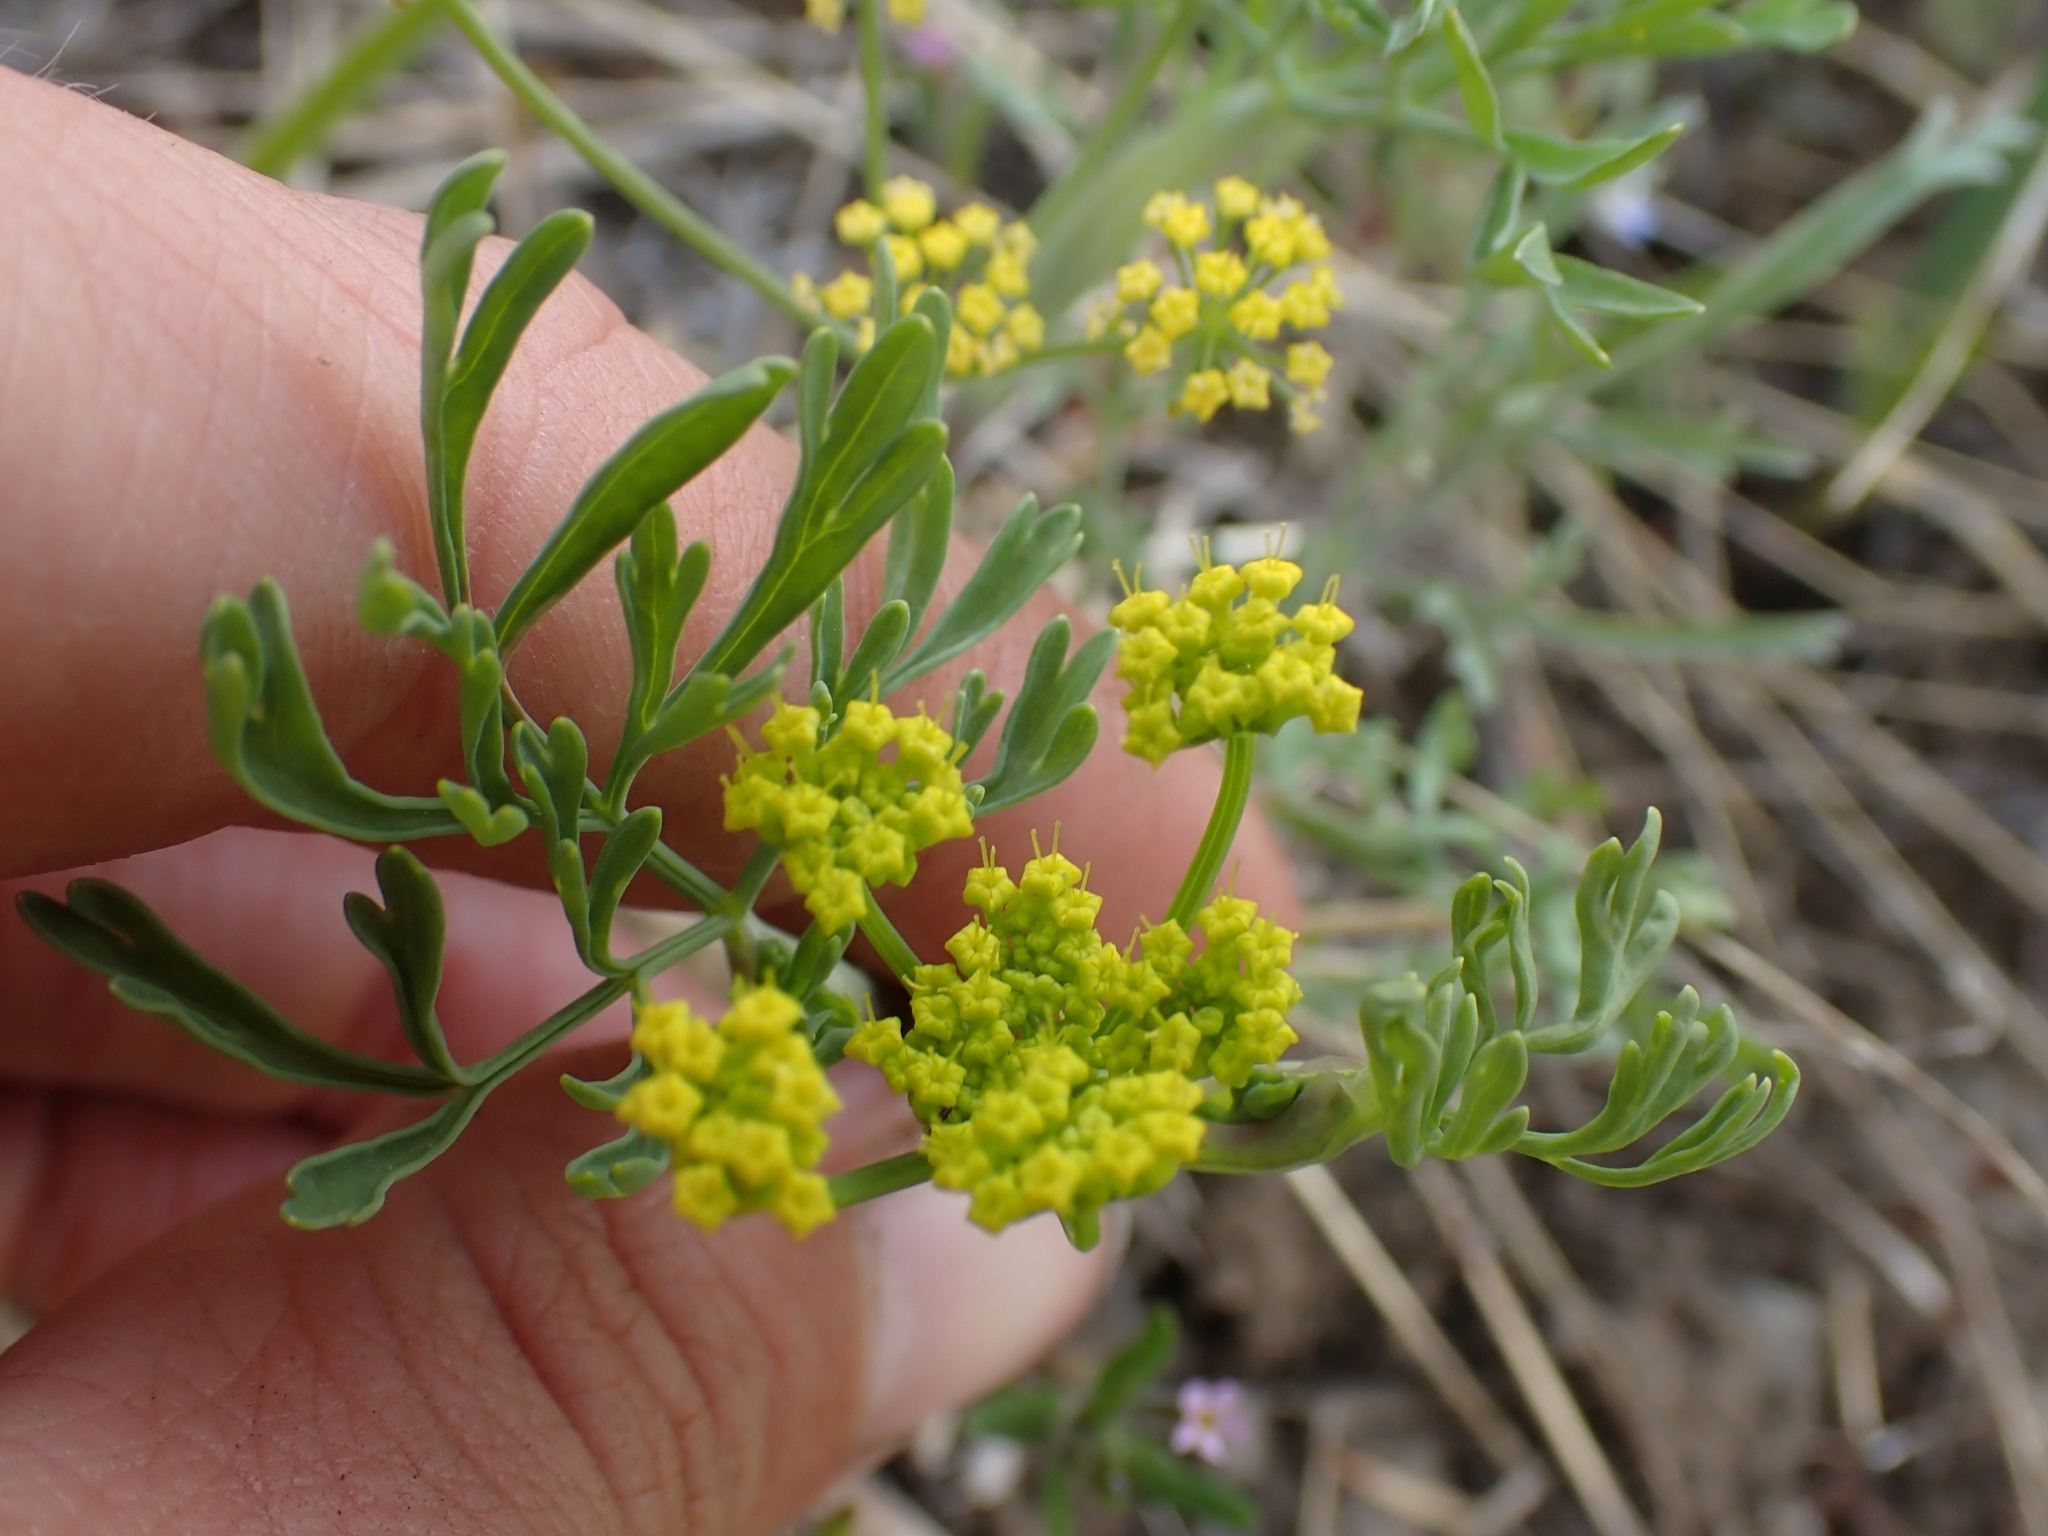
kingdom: Plantae
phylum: Tracheophyta
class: Magnoliopsida
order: Apiales
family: Apiaceae
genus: Lomatium
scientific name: Lomatium ambiguum
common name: Lacy lomatium
